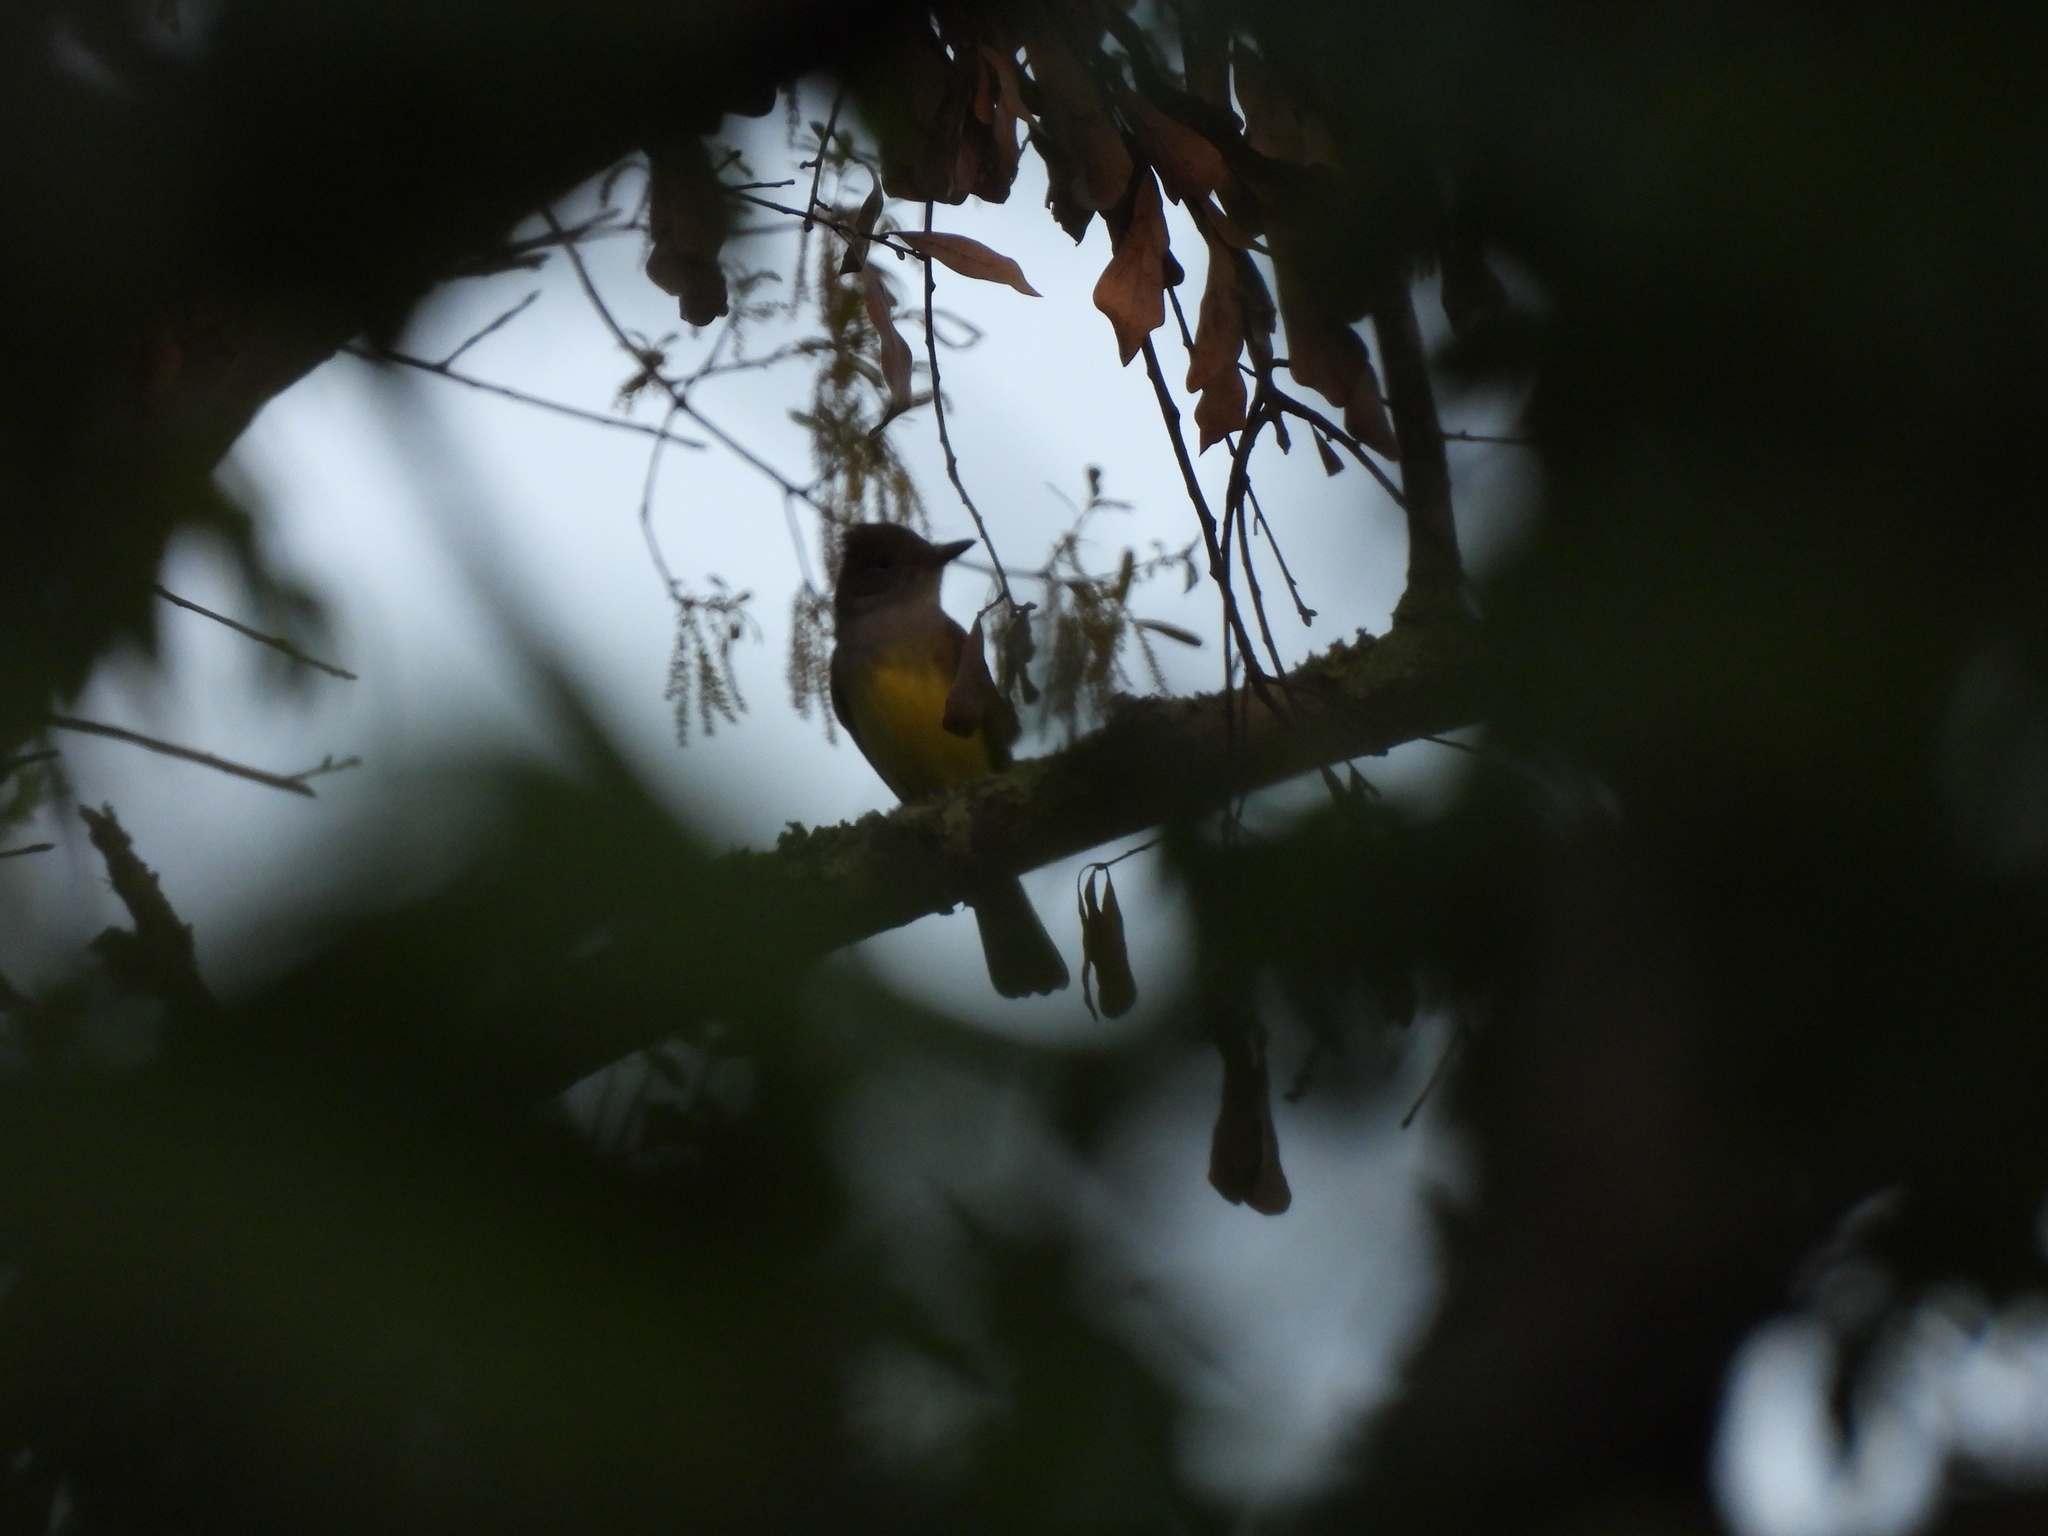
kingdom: Animalia
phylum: Chordata
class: Aves
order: Passeriformes
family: Tyrannidae
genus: Myiarchus
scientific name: Myiarchus crinitus
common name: Great crested flycatcher
